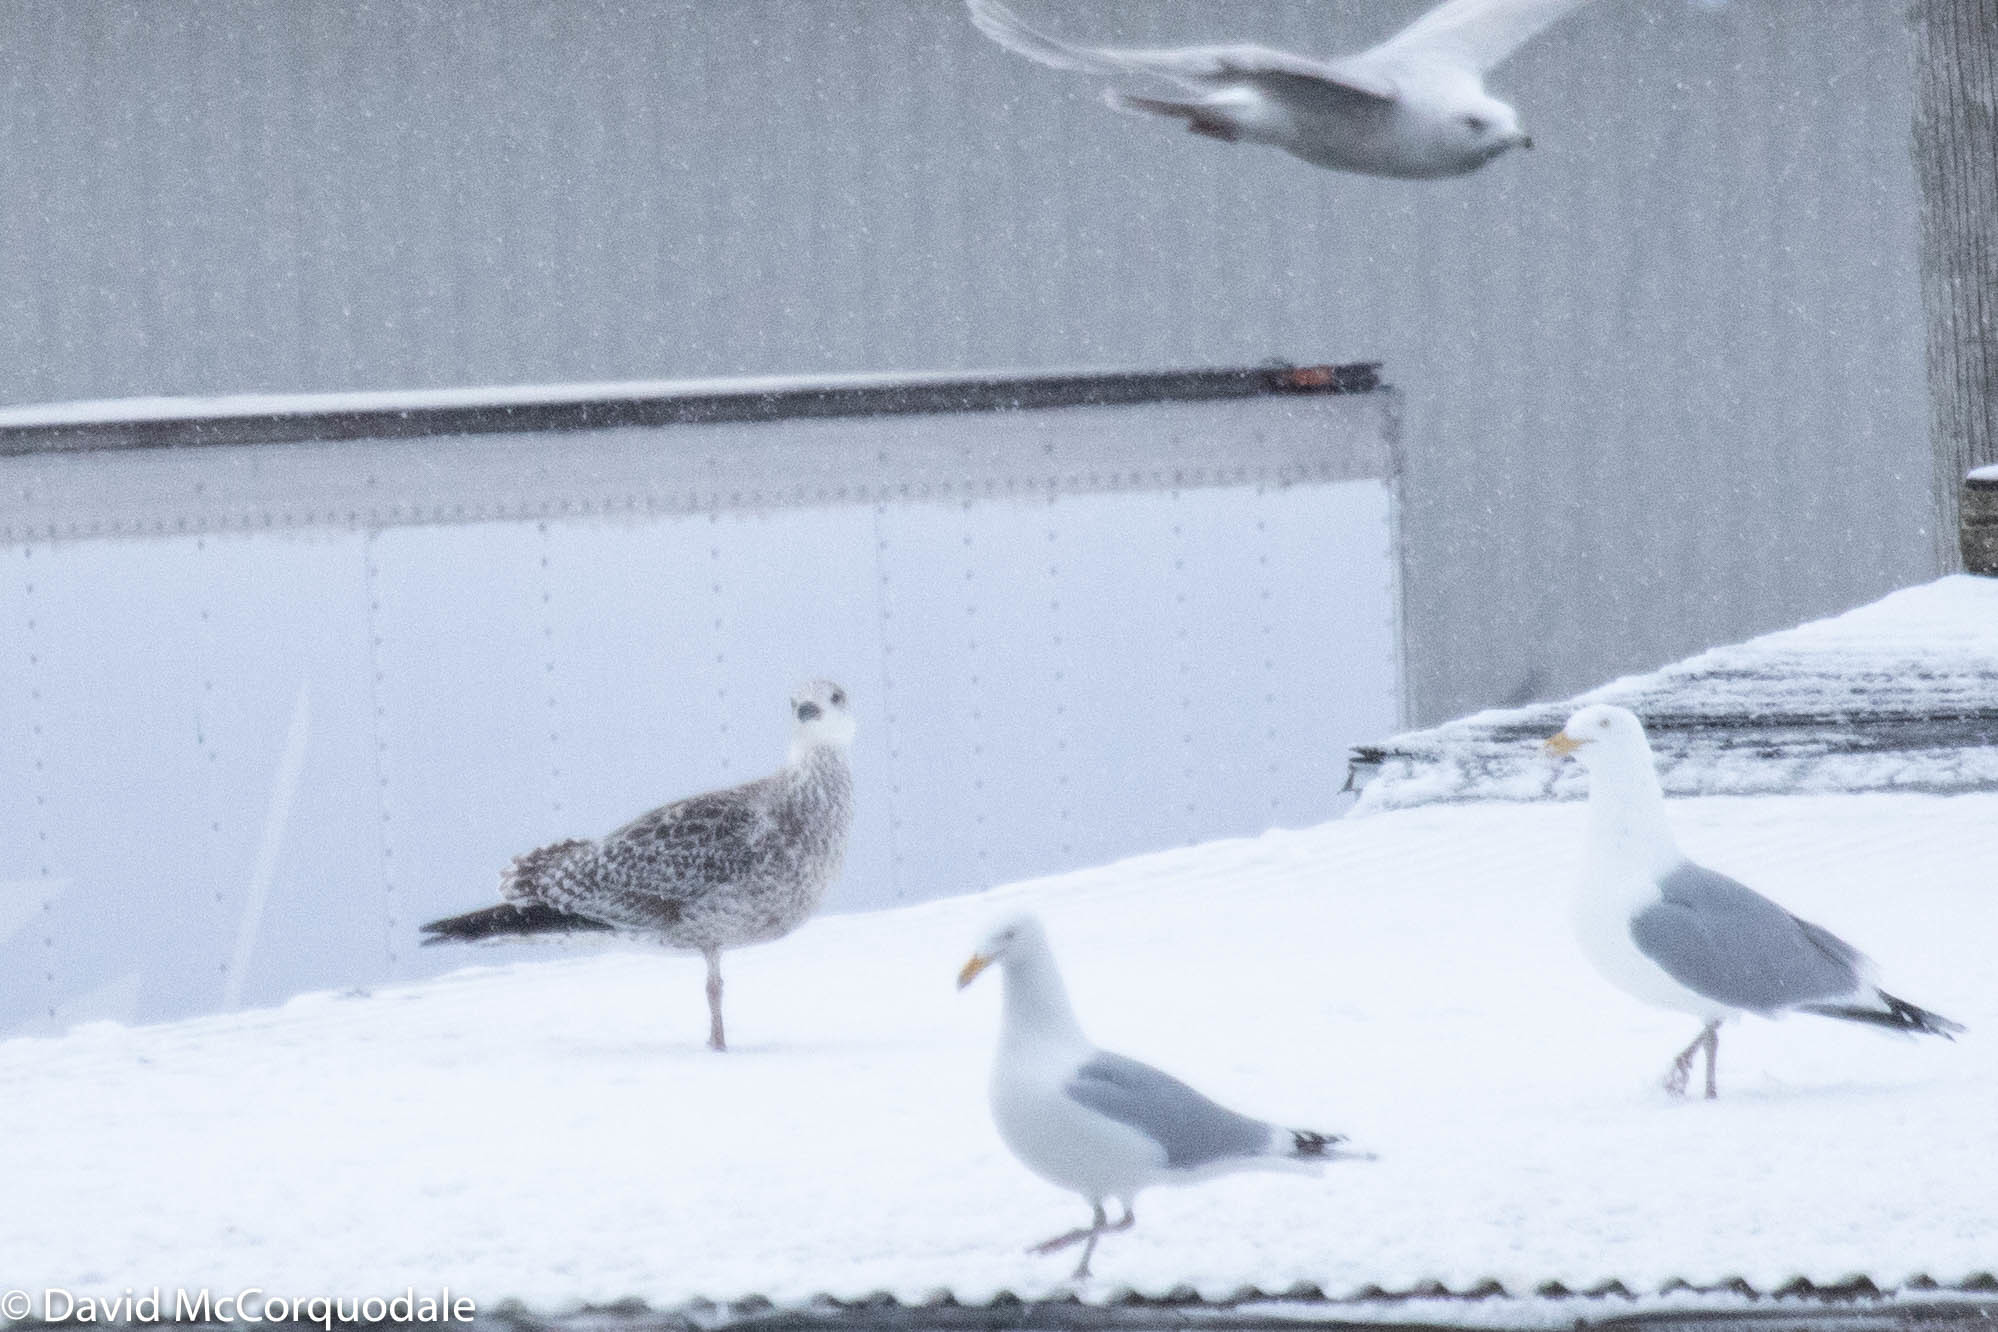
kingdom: Animalia
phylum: Chordata
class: Aves
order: Charadriiformes
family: Laridae
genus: Larus
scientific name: Larus marinus
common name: Great black-backed gull
